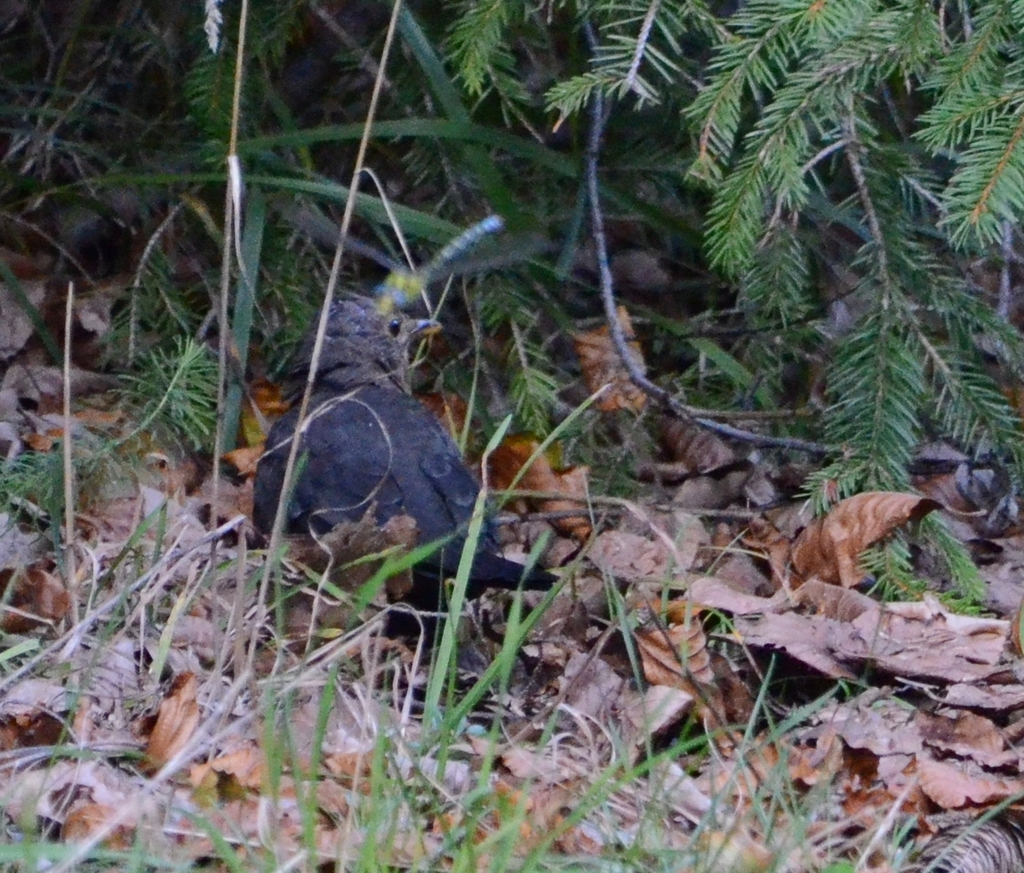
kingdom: Animalia
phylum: Chordata
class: Aves
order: Passeriformes
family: Turdidae
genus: Turdus
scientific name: Turdus merula
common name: Common blackbird
